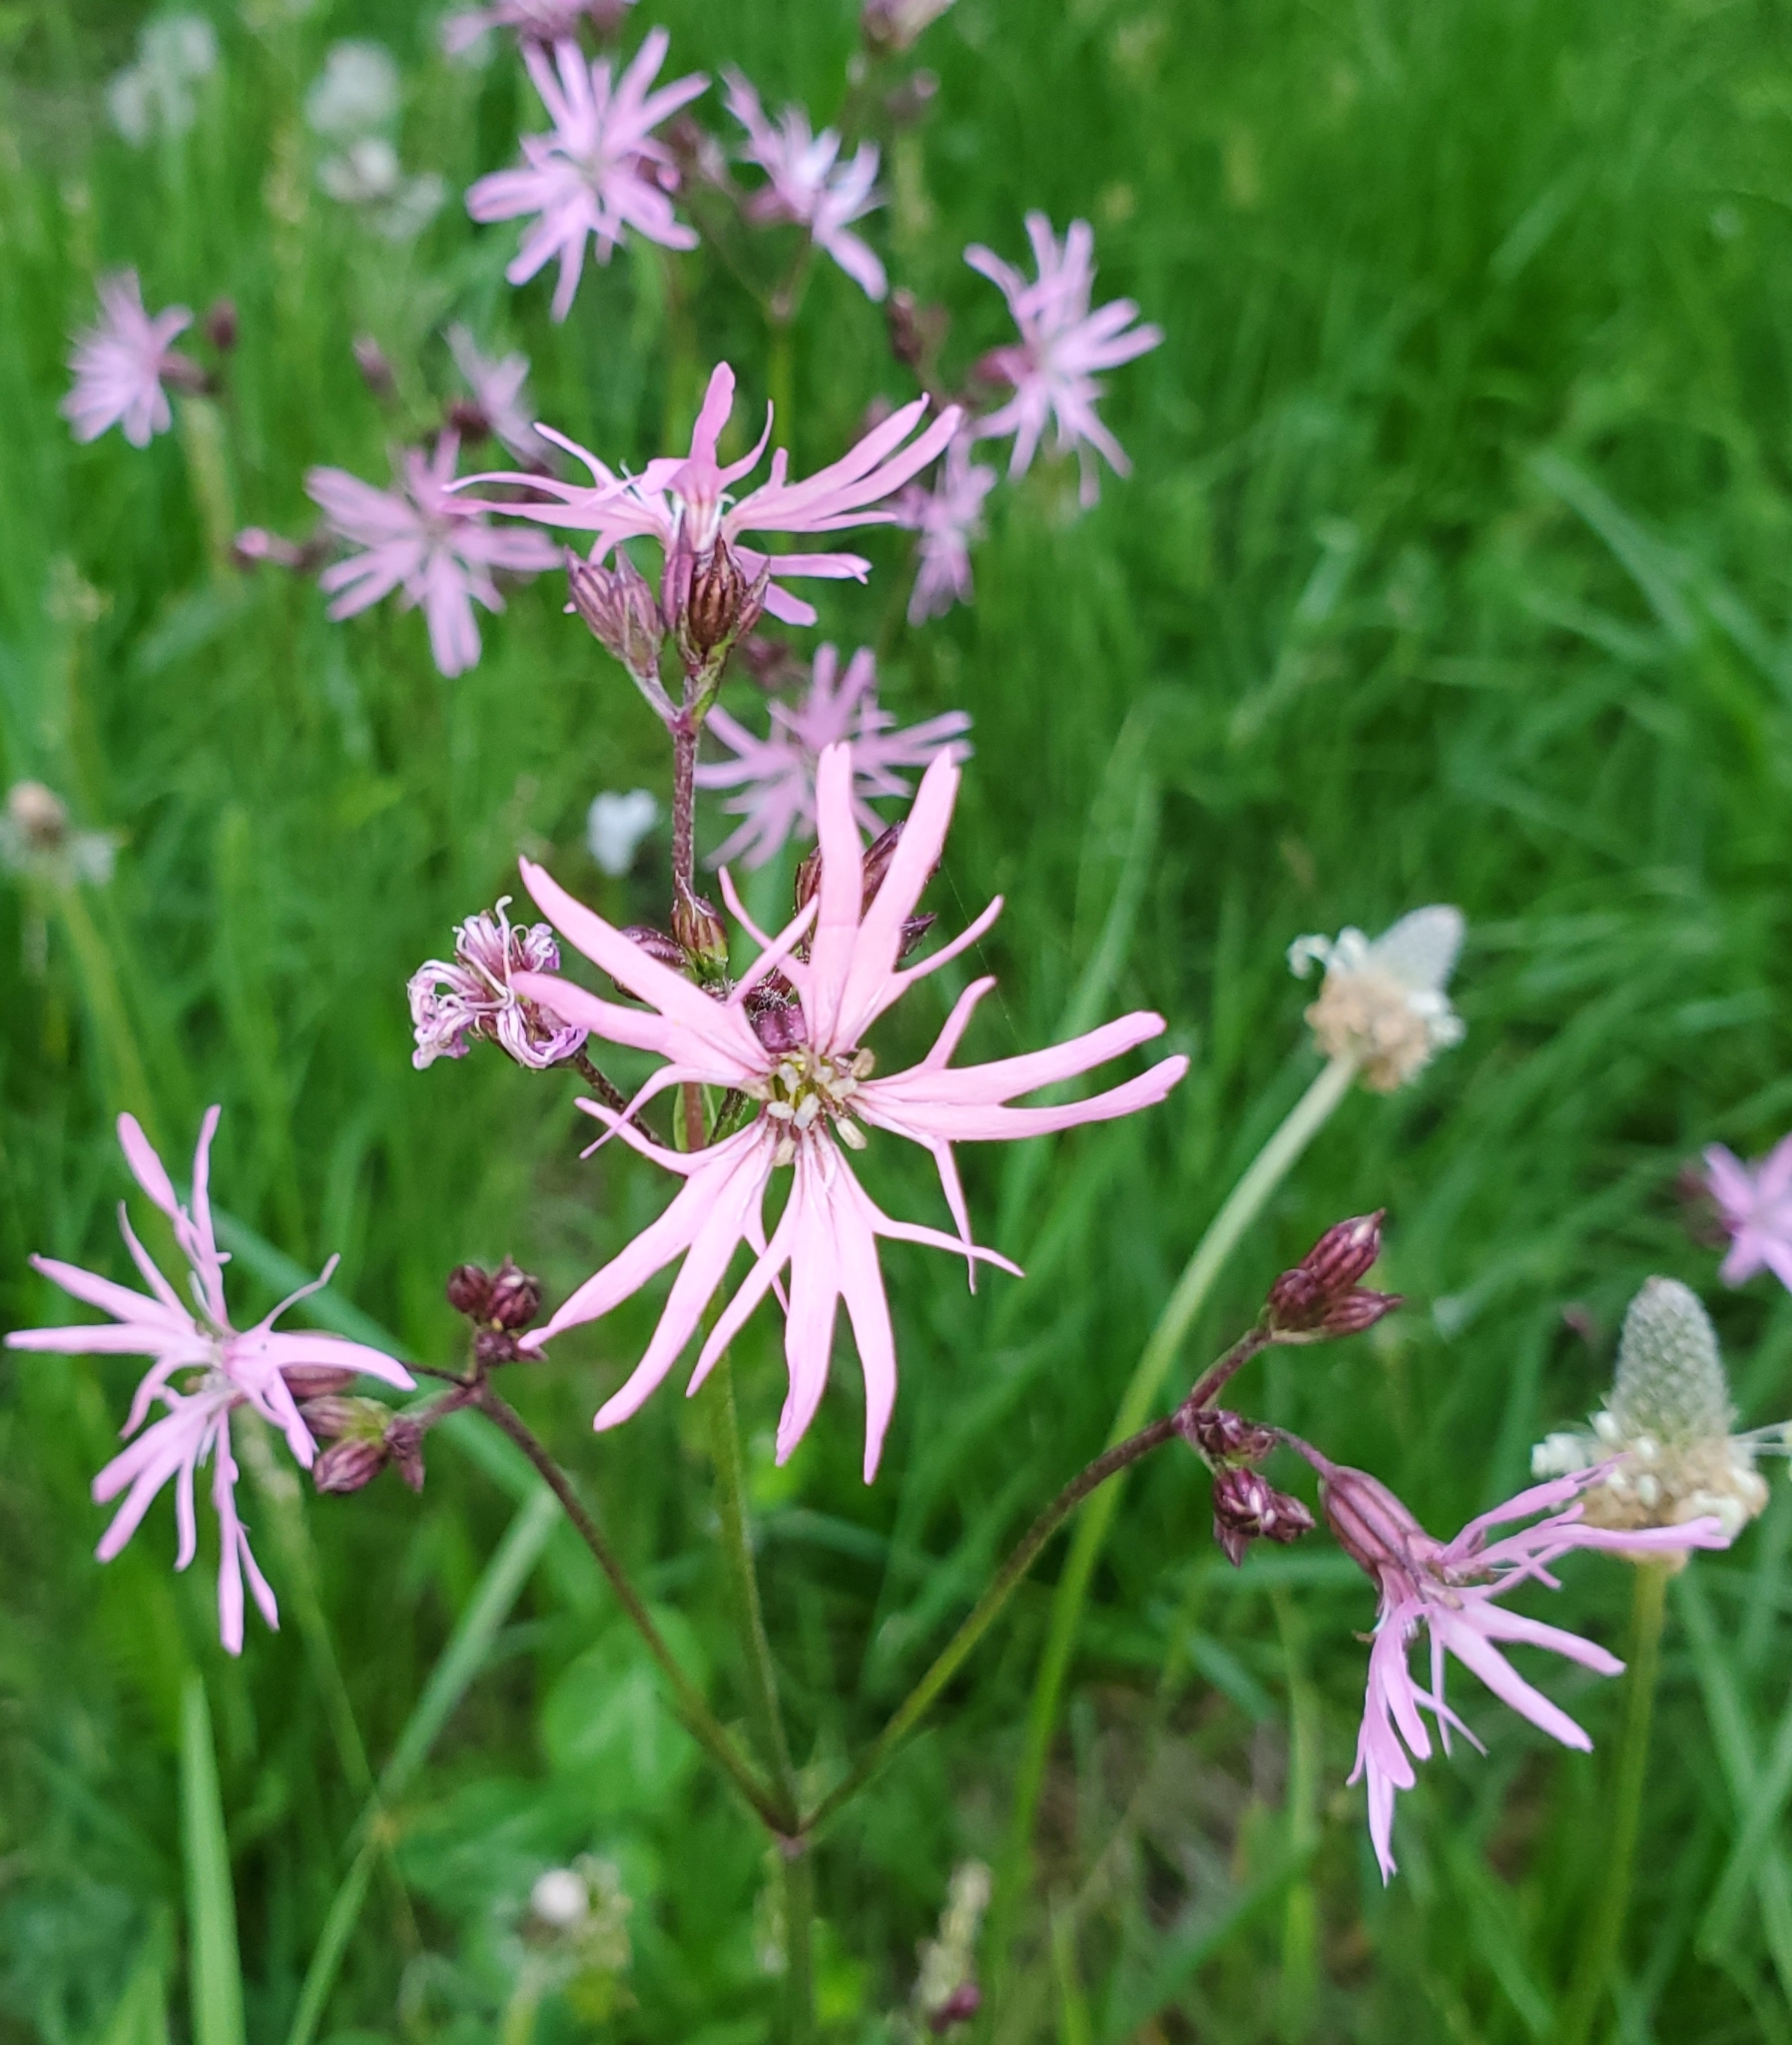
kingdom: Plantae
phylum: Tracheophyta
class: Magnoliopsida
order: Caryophyllales
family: Caryophyllaceae
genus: Silene
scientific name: Silene flos-cuculi
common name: Ragged-robin
